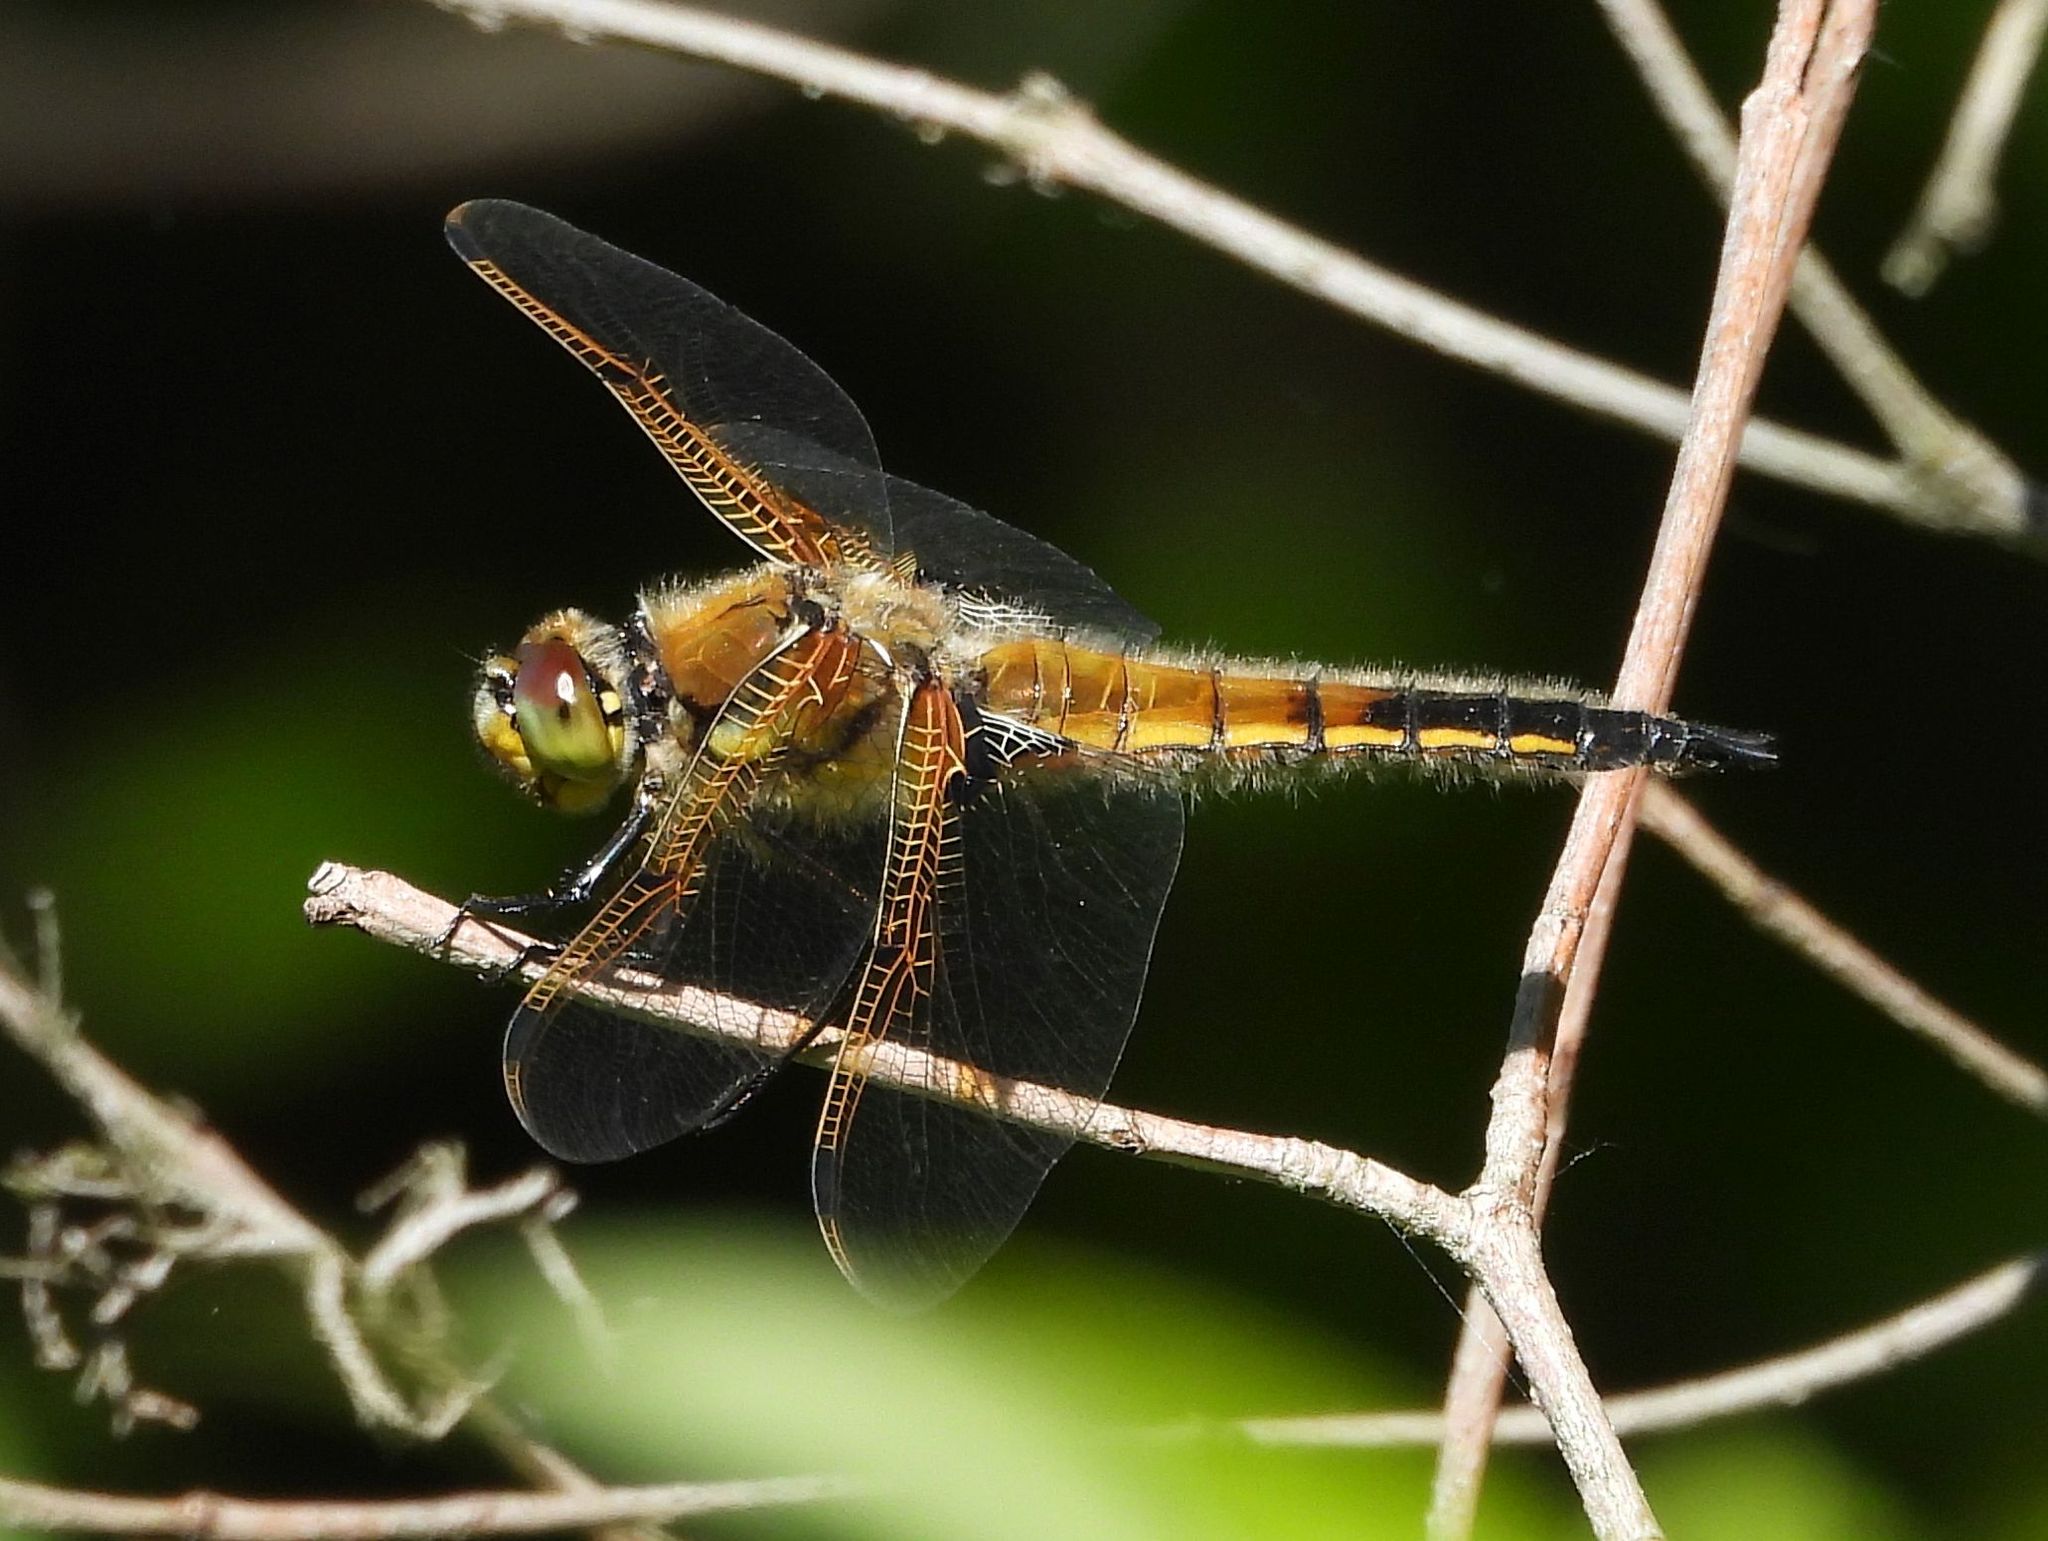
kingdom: Animalia
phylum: Arthropoda
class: Insecta
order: Odonata
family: Libellulidae
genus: Libellula
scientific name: Libellula quadrimaculata
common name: Four-spotted chaser
